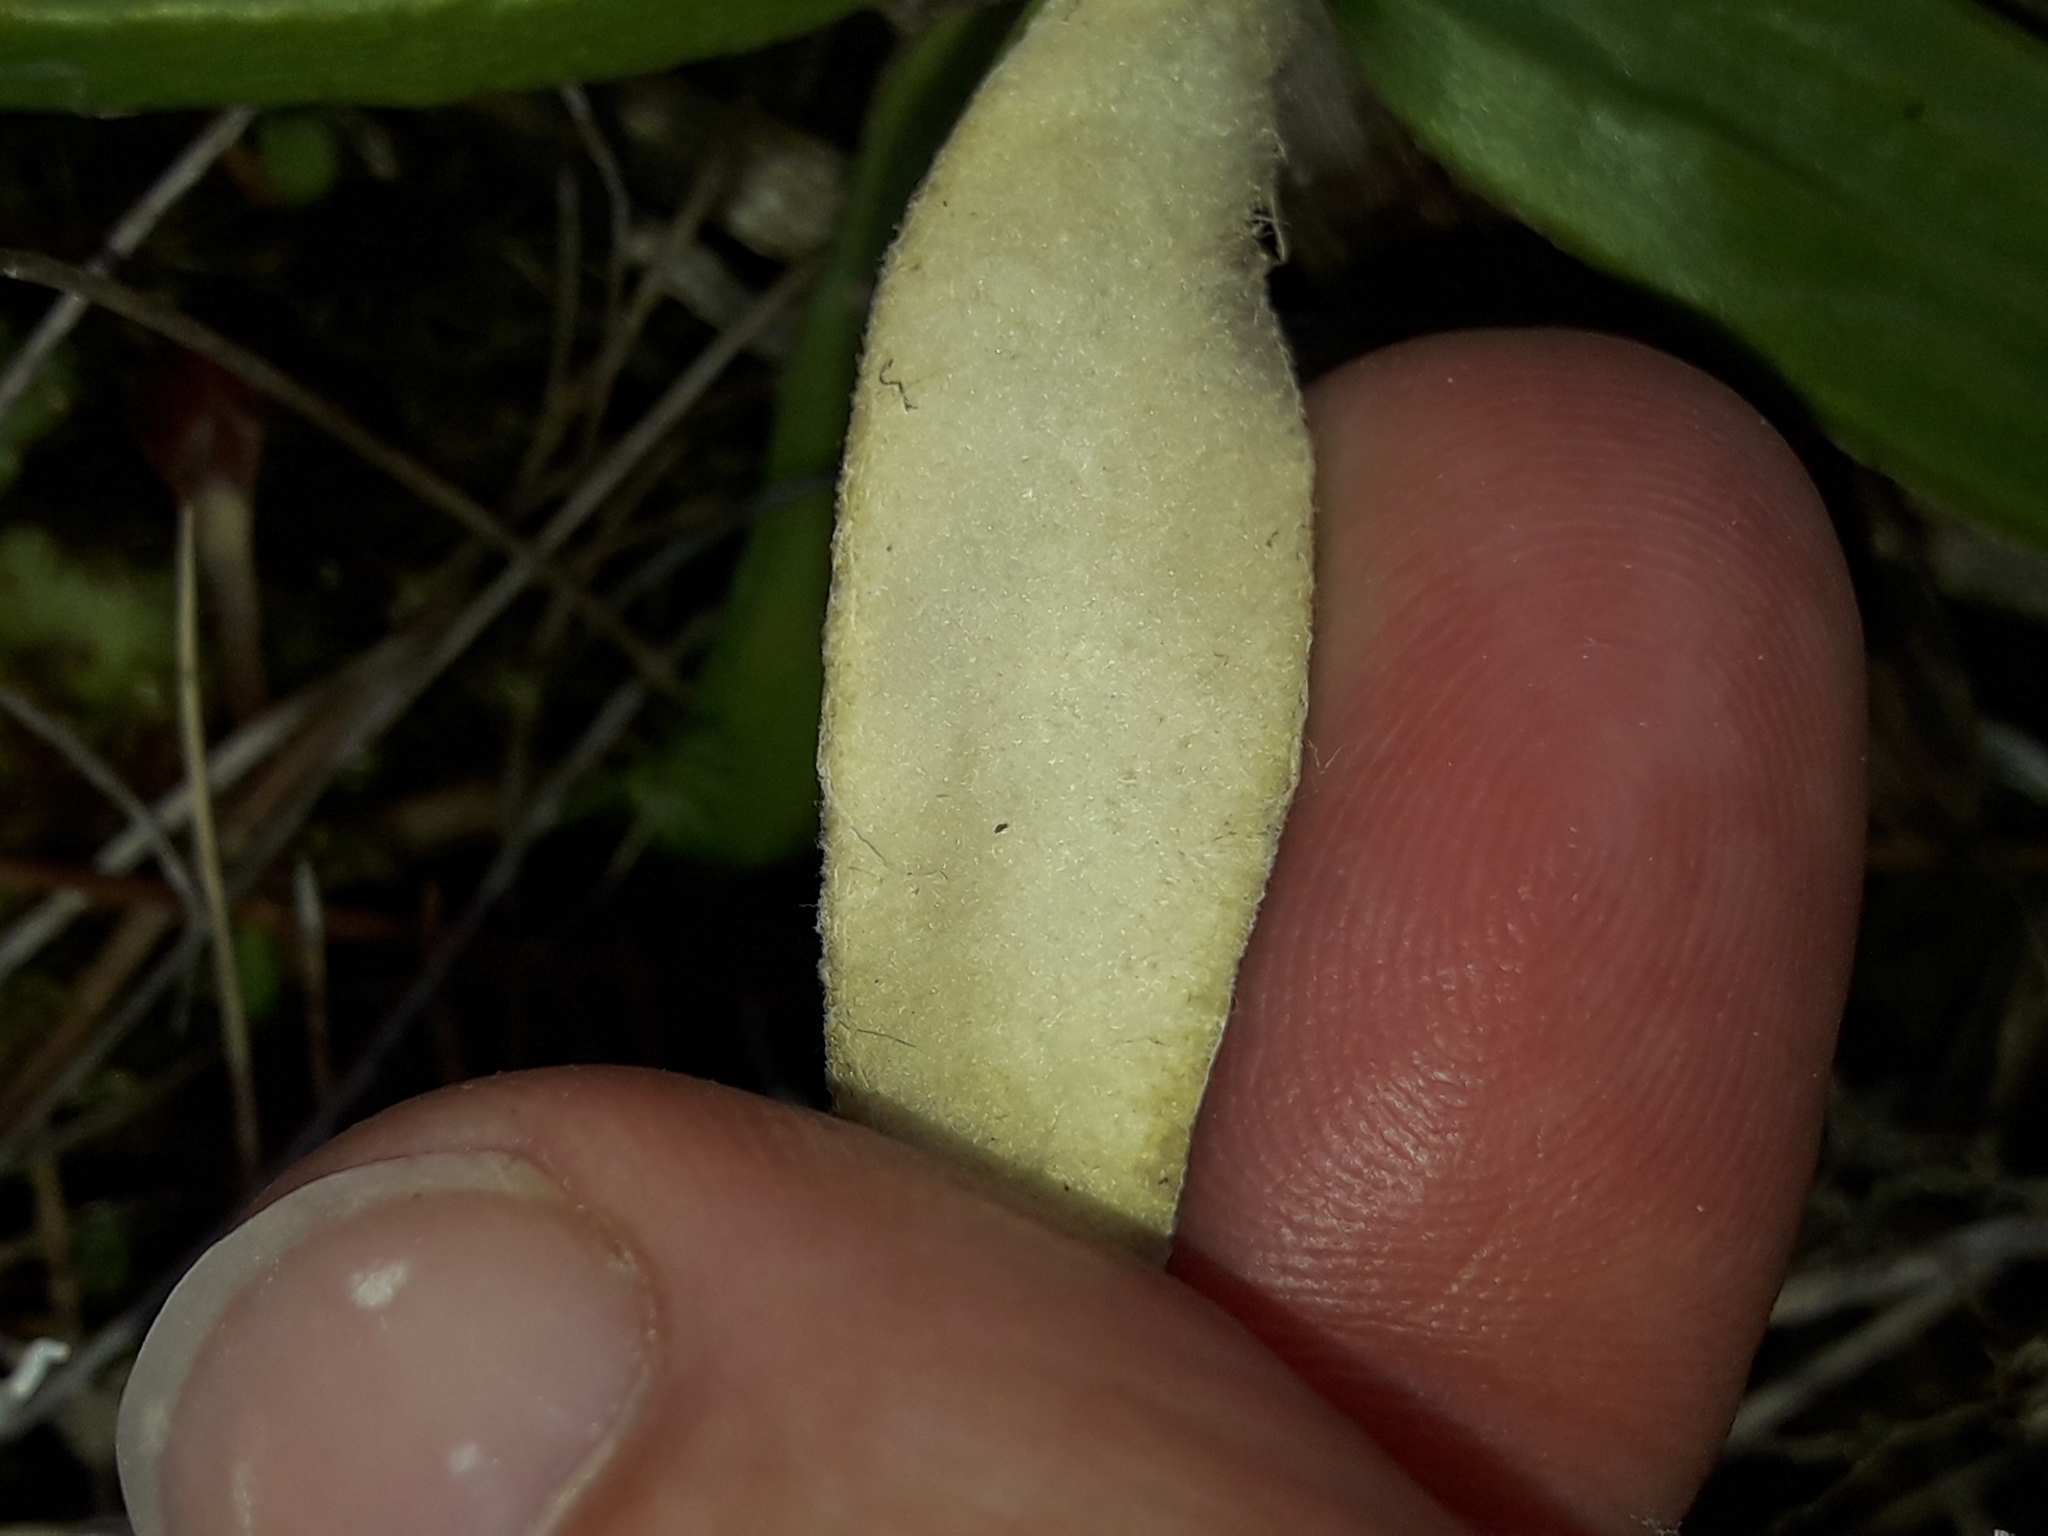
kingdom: Plantae
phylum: Tracheophyta
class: Magnoliopsida
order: Asterales
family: Asteraceae
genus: Celmisia
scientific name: Celmisia spectabilis
